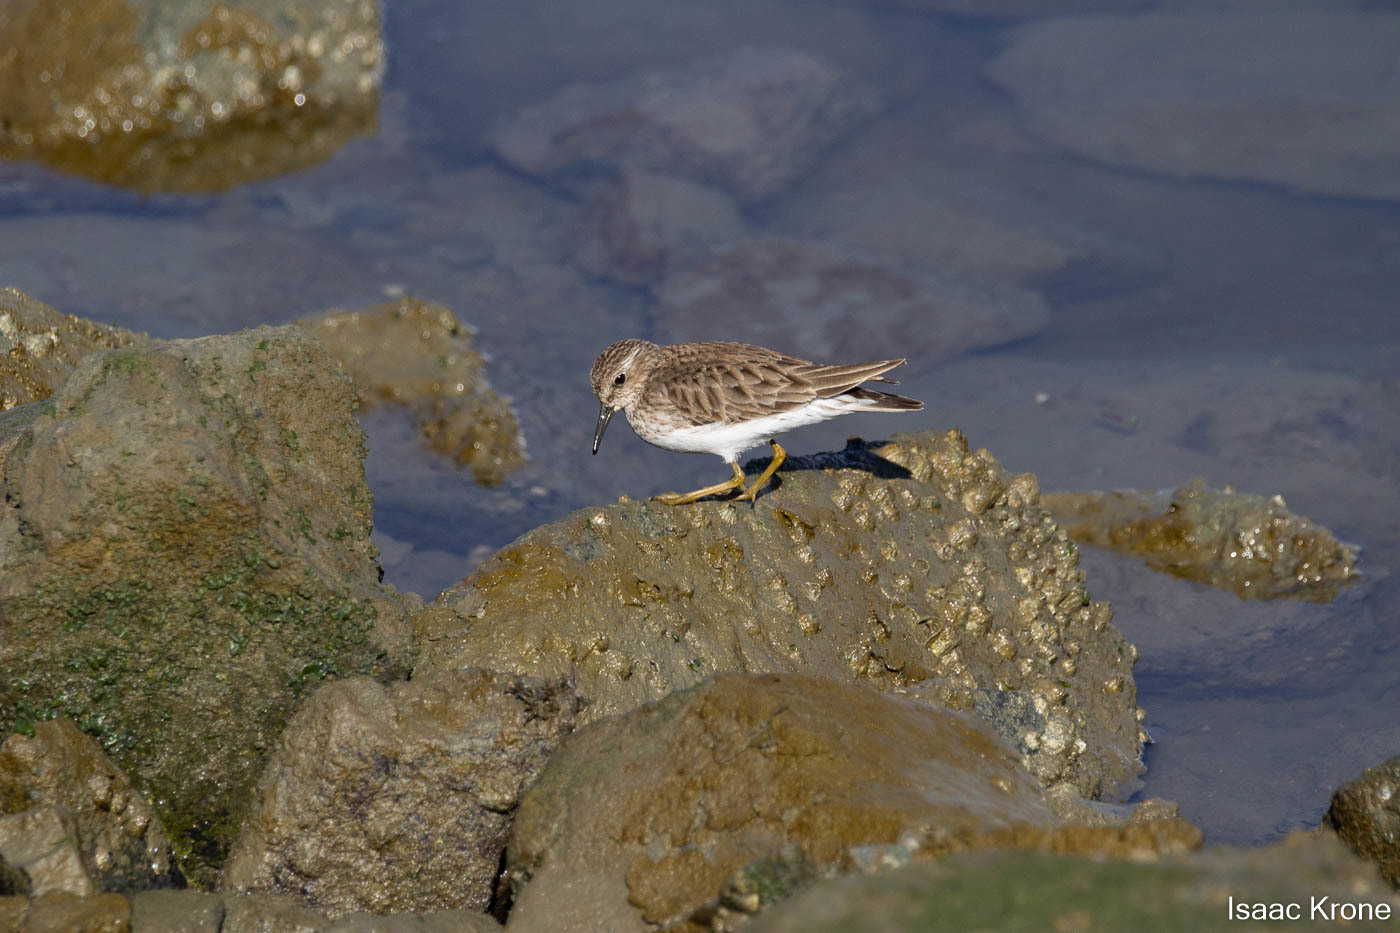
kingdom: Animalia
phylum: Chordata
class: Aves
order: Charadriiformes
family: Scolopacidae
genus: Calidris
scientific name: Calidris minutilla
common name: Least sandpiper
